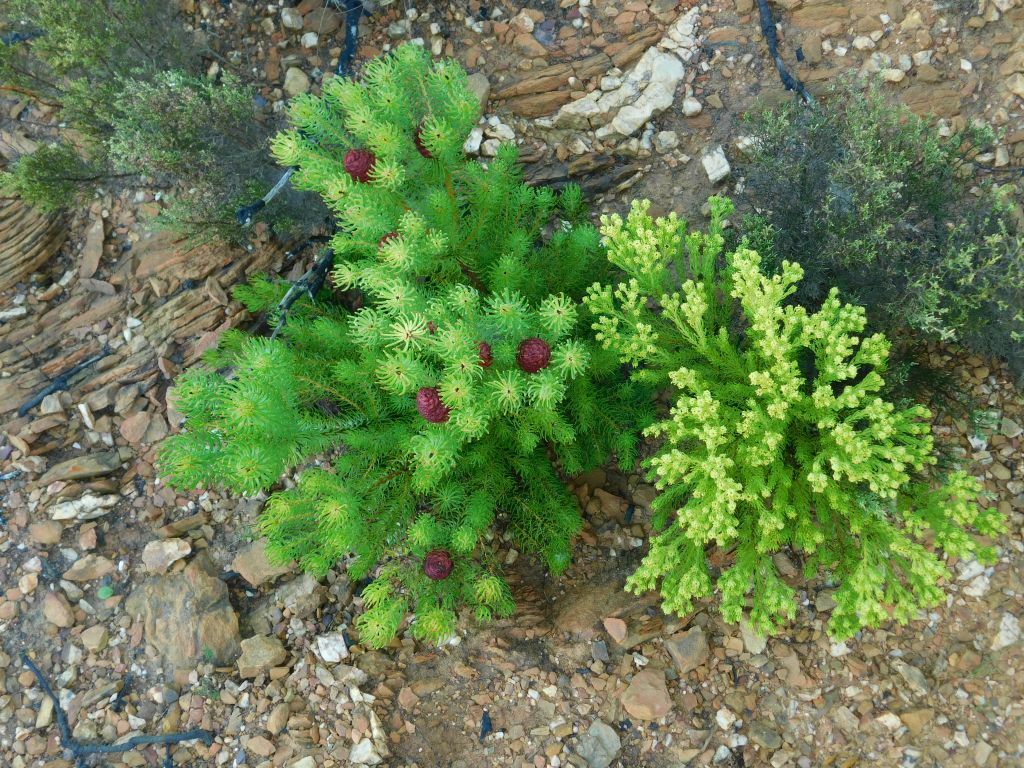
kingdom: Plantae
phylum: Tracheophyta
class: Magnoliopsida
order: Proteales
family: Proteaceae
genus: Leucadendron
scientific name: Leucadendron teretifolium
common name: Needle-leaf conebush
